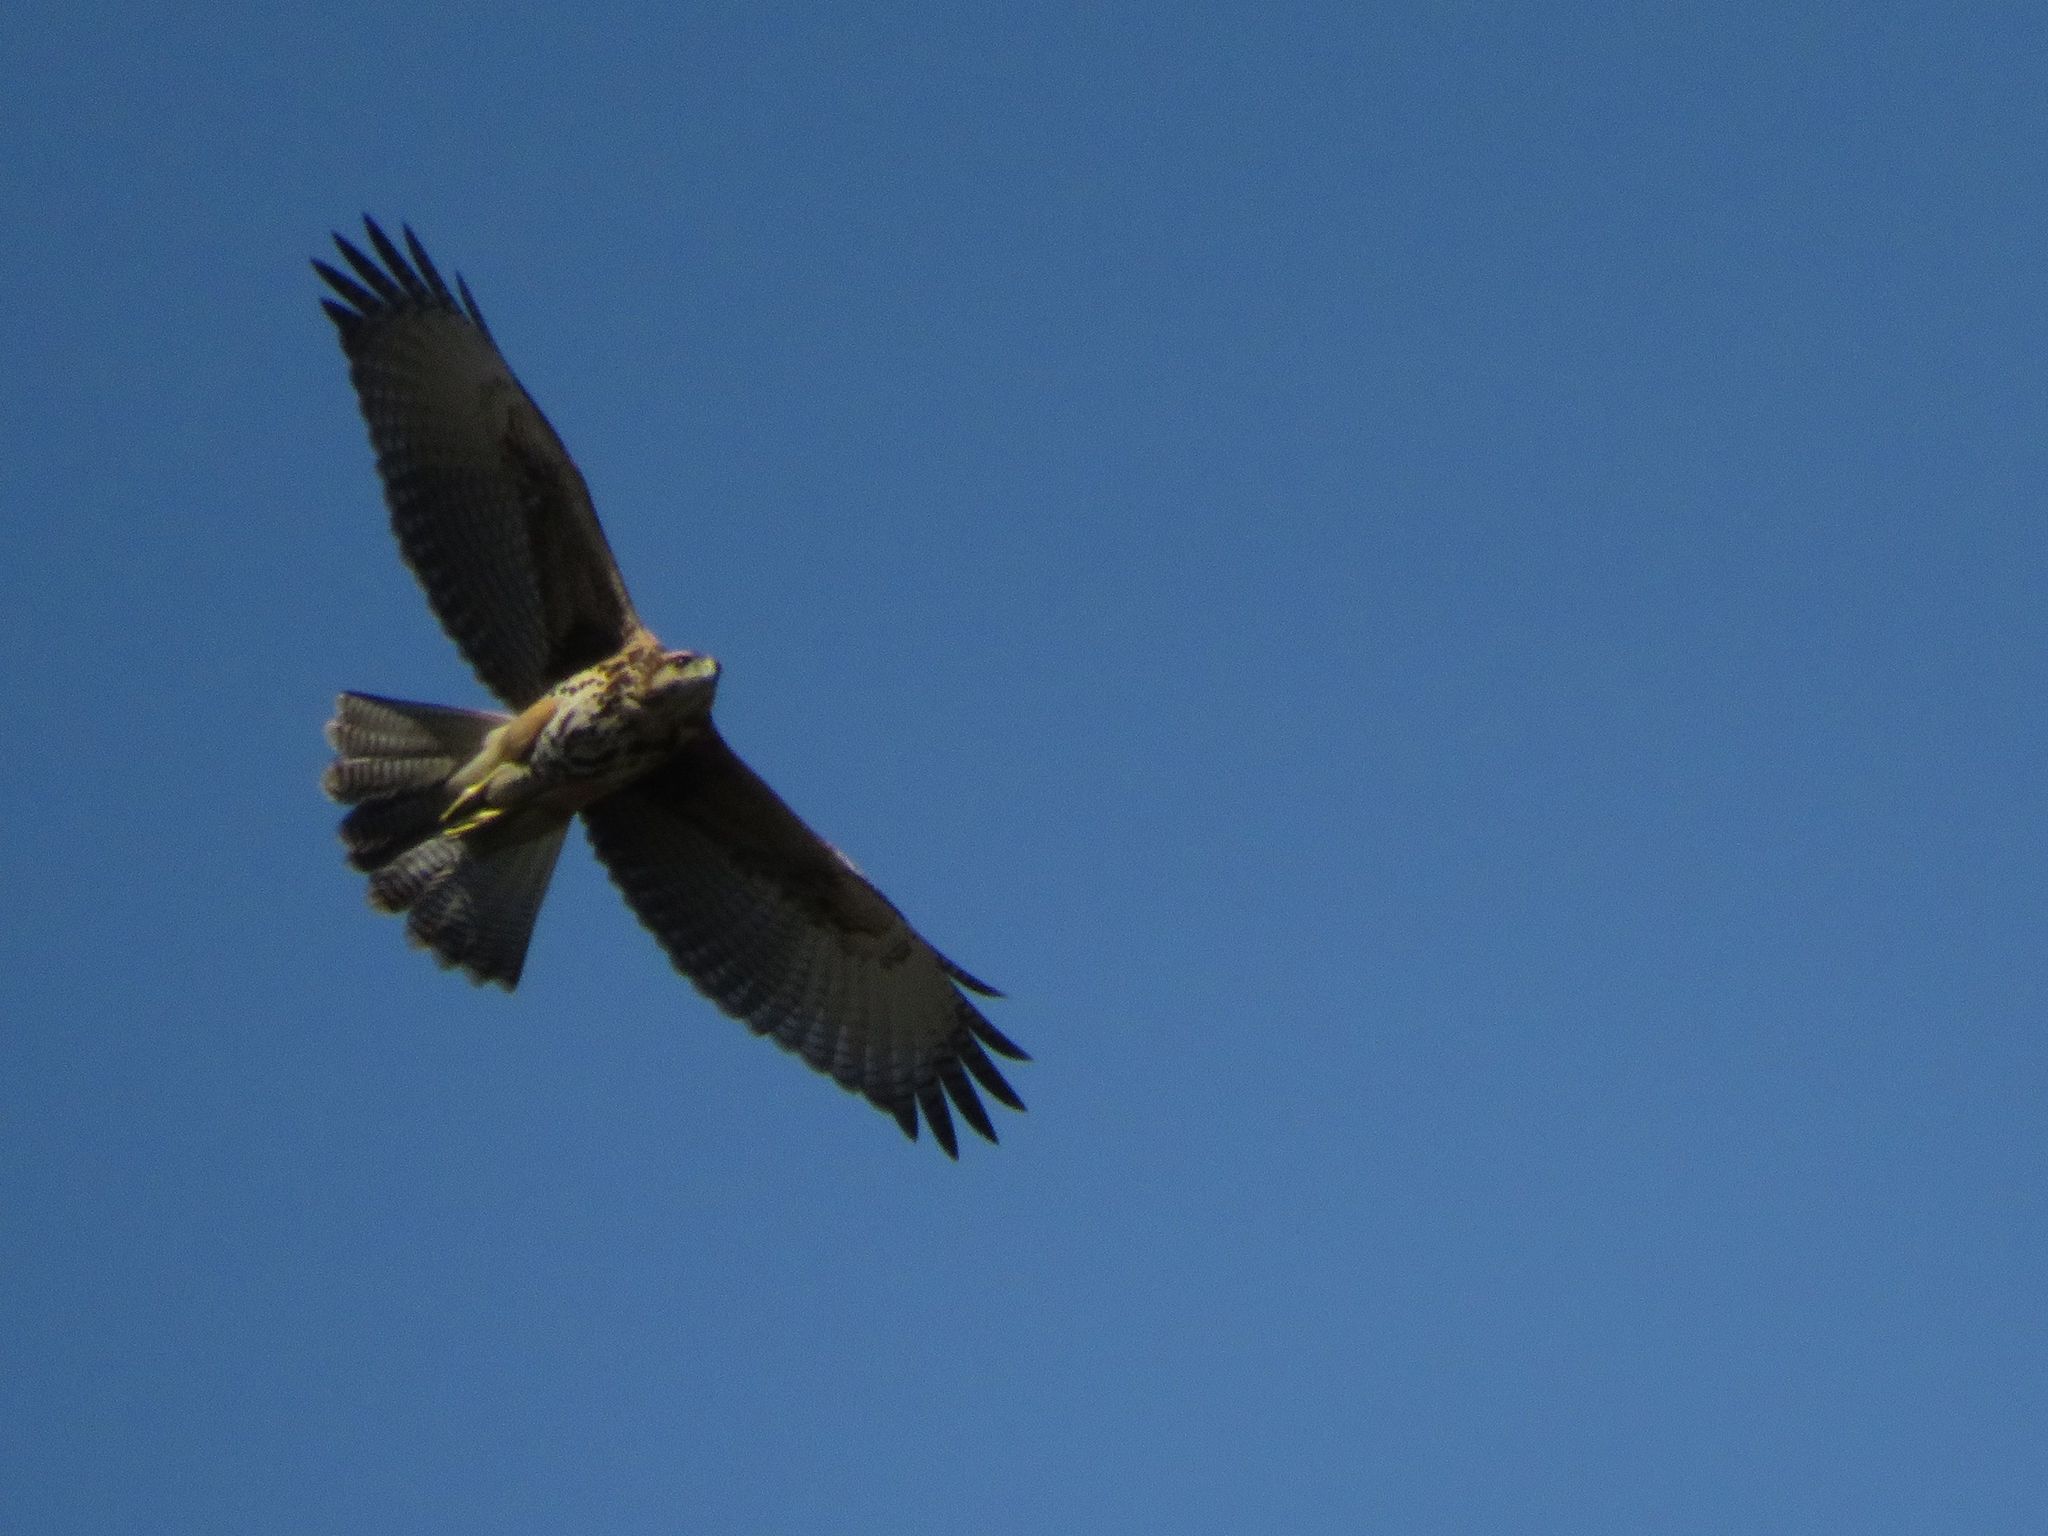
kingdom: Animalia
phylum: Chordata
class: Aves
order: Accipitriformes
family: Accipitridae
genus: Parabuteo
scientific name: Parabuteo unicinctus
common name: Harris's hawk
